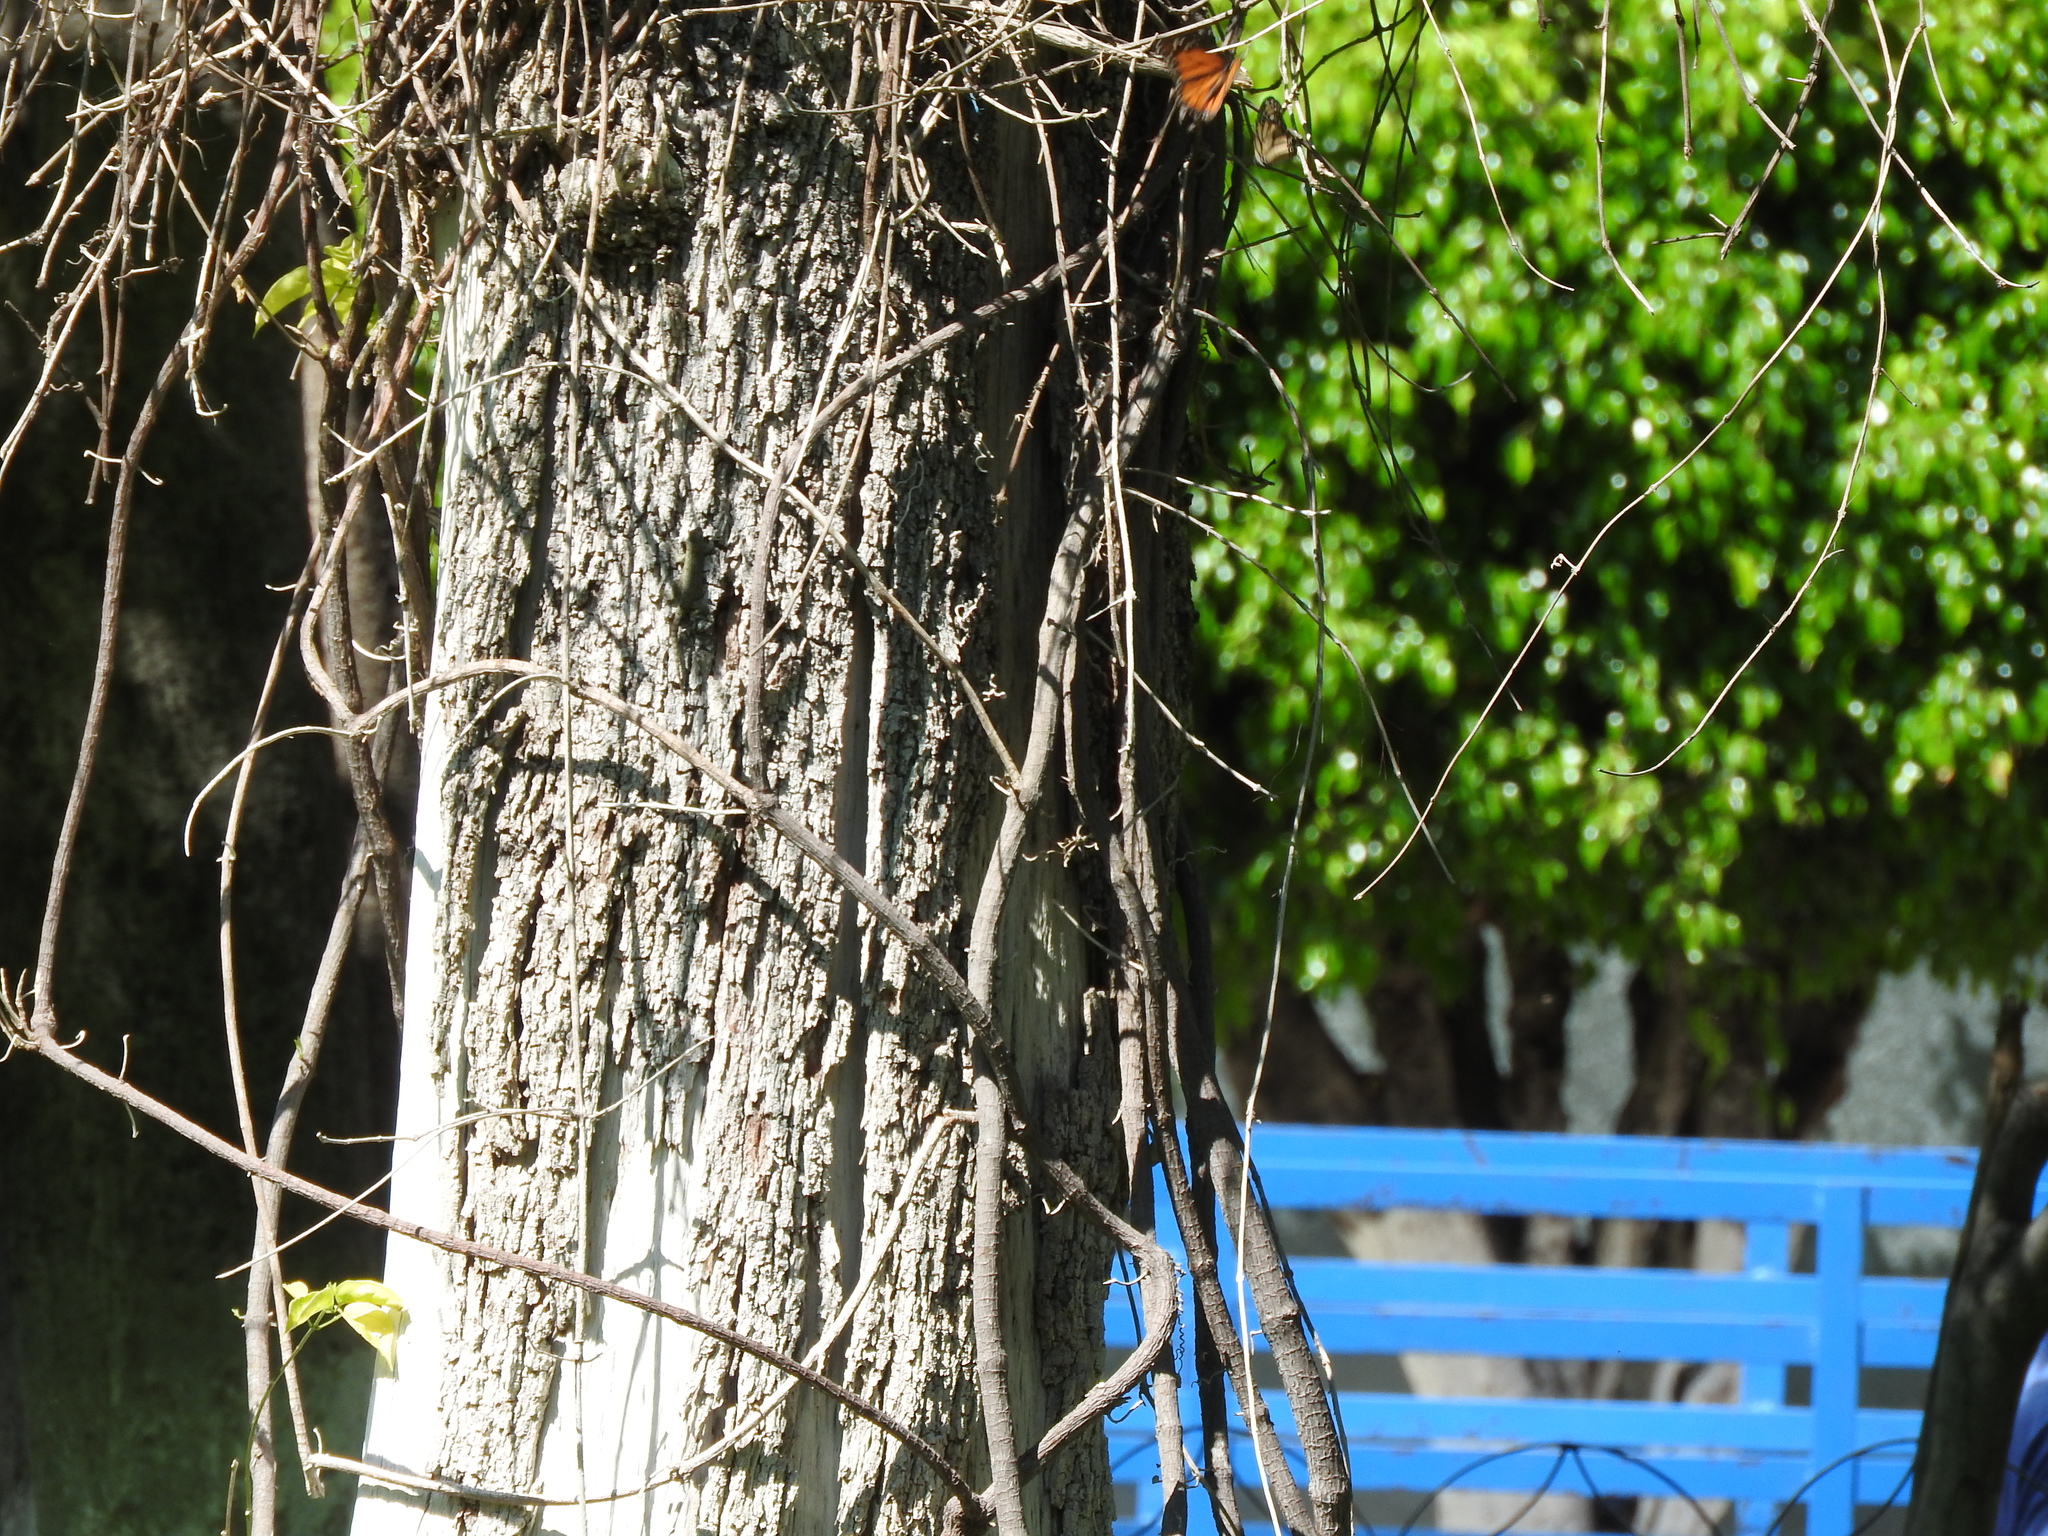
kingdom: Animalia
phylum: Arthropoda
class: Insecta
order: Lepidoptera
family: Nymphalidae
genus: Danaus
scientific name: Danaus plexippus
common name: Monarch
